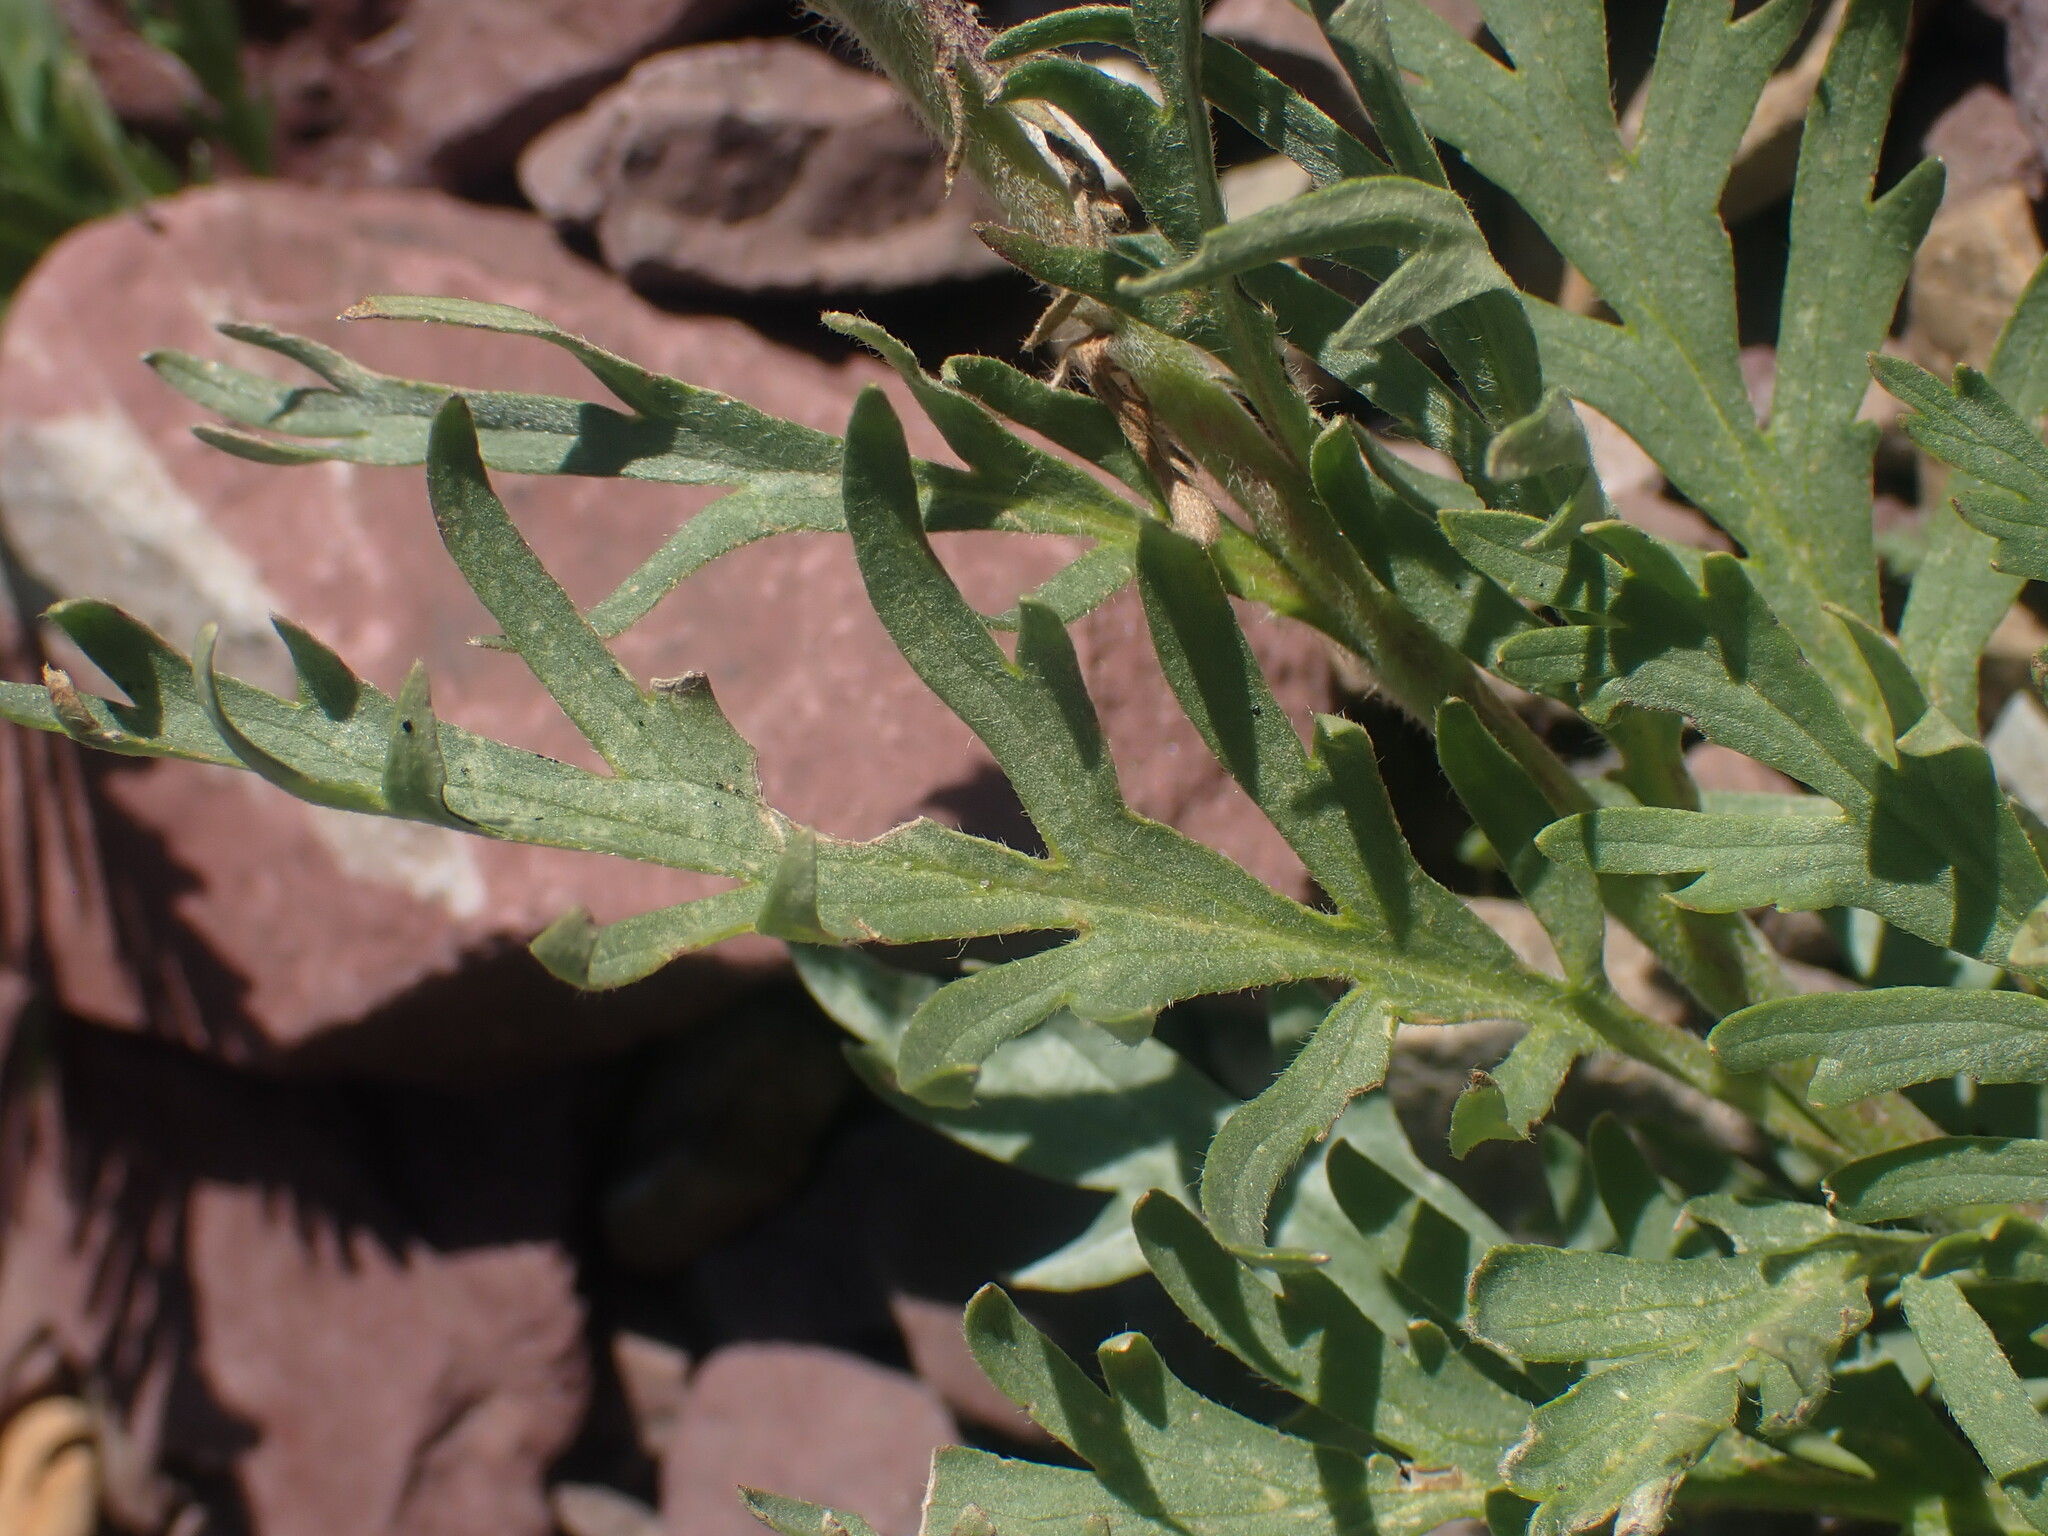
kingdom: Plantae
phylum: Tracheophyta
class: Magnoliopsida
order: Boraginales
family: Hydrophyllaceae
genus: Phacelia
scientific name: Phacelia sericea
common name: Silky phacelia
